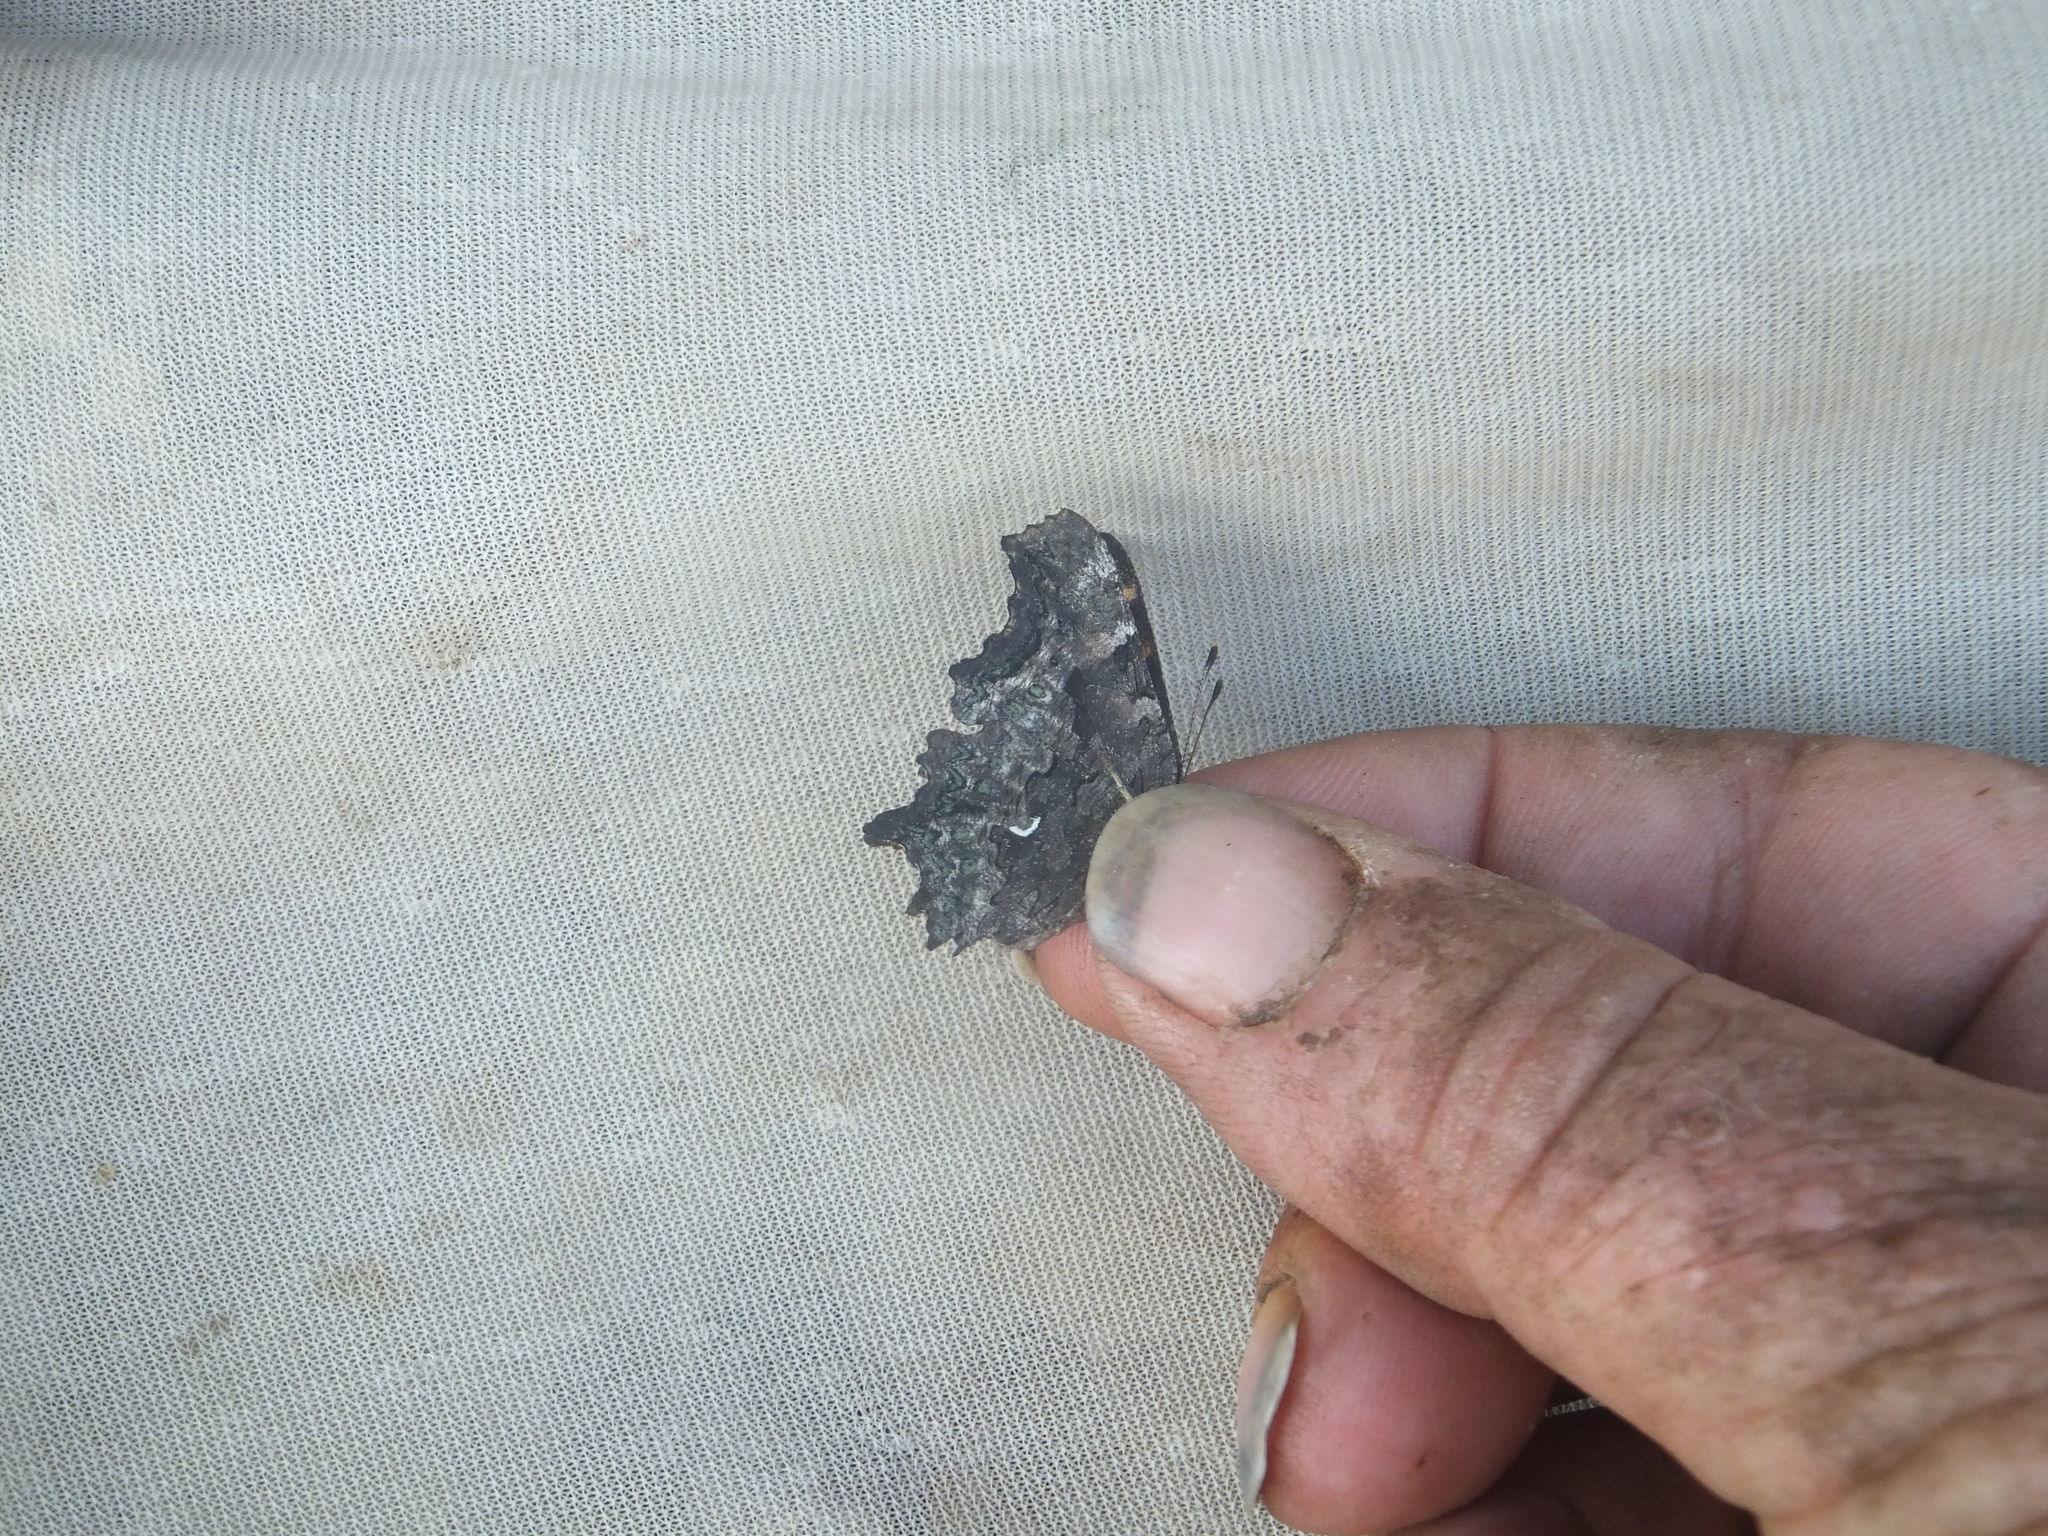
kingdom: Animalia
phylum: Arthropoda
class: Insecta
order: Lepidoptera
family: Nymphalidae
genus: Polygonia
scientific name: Polygonia faunus
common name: Green comma
